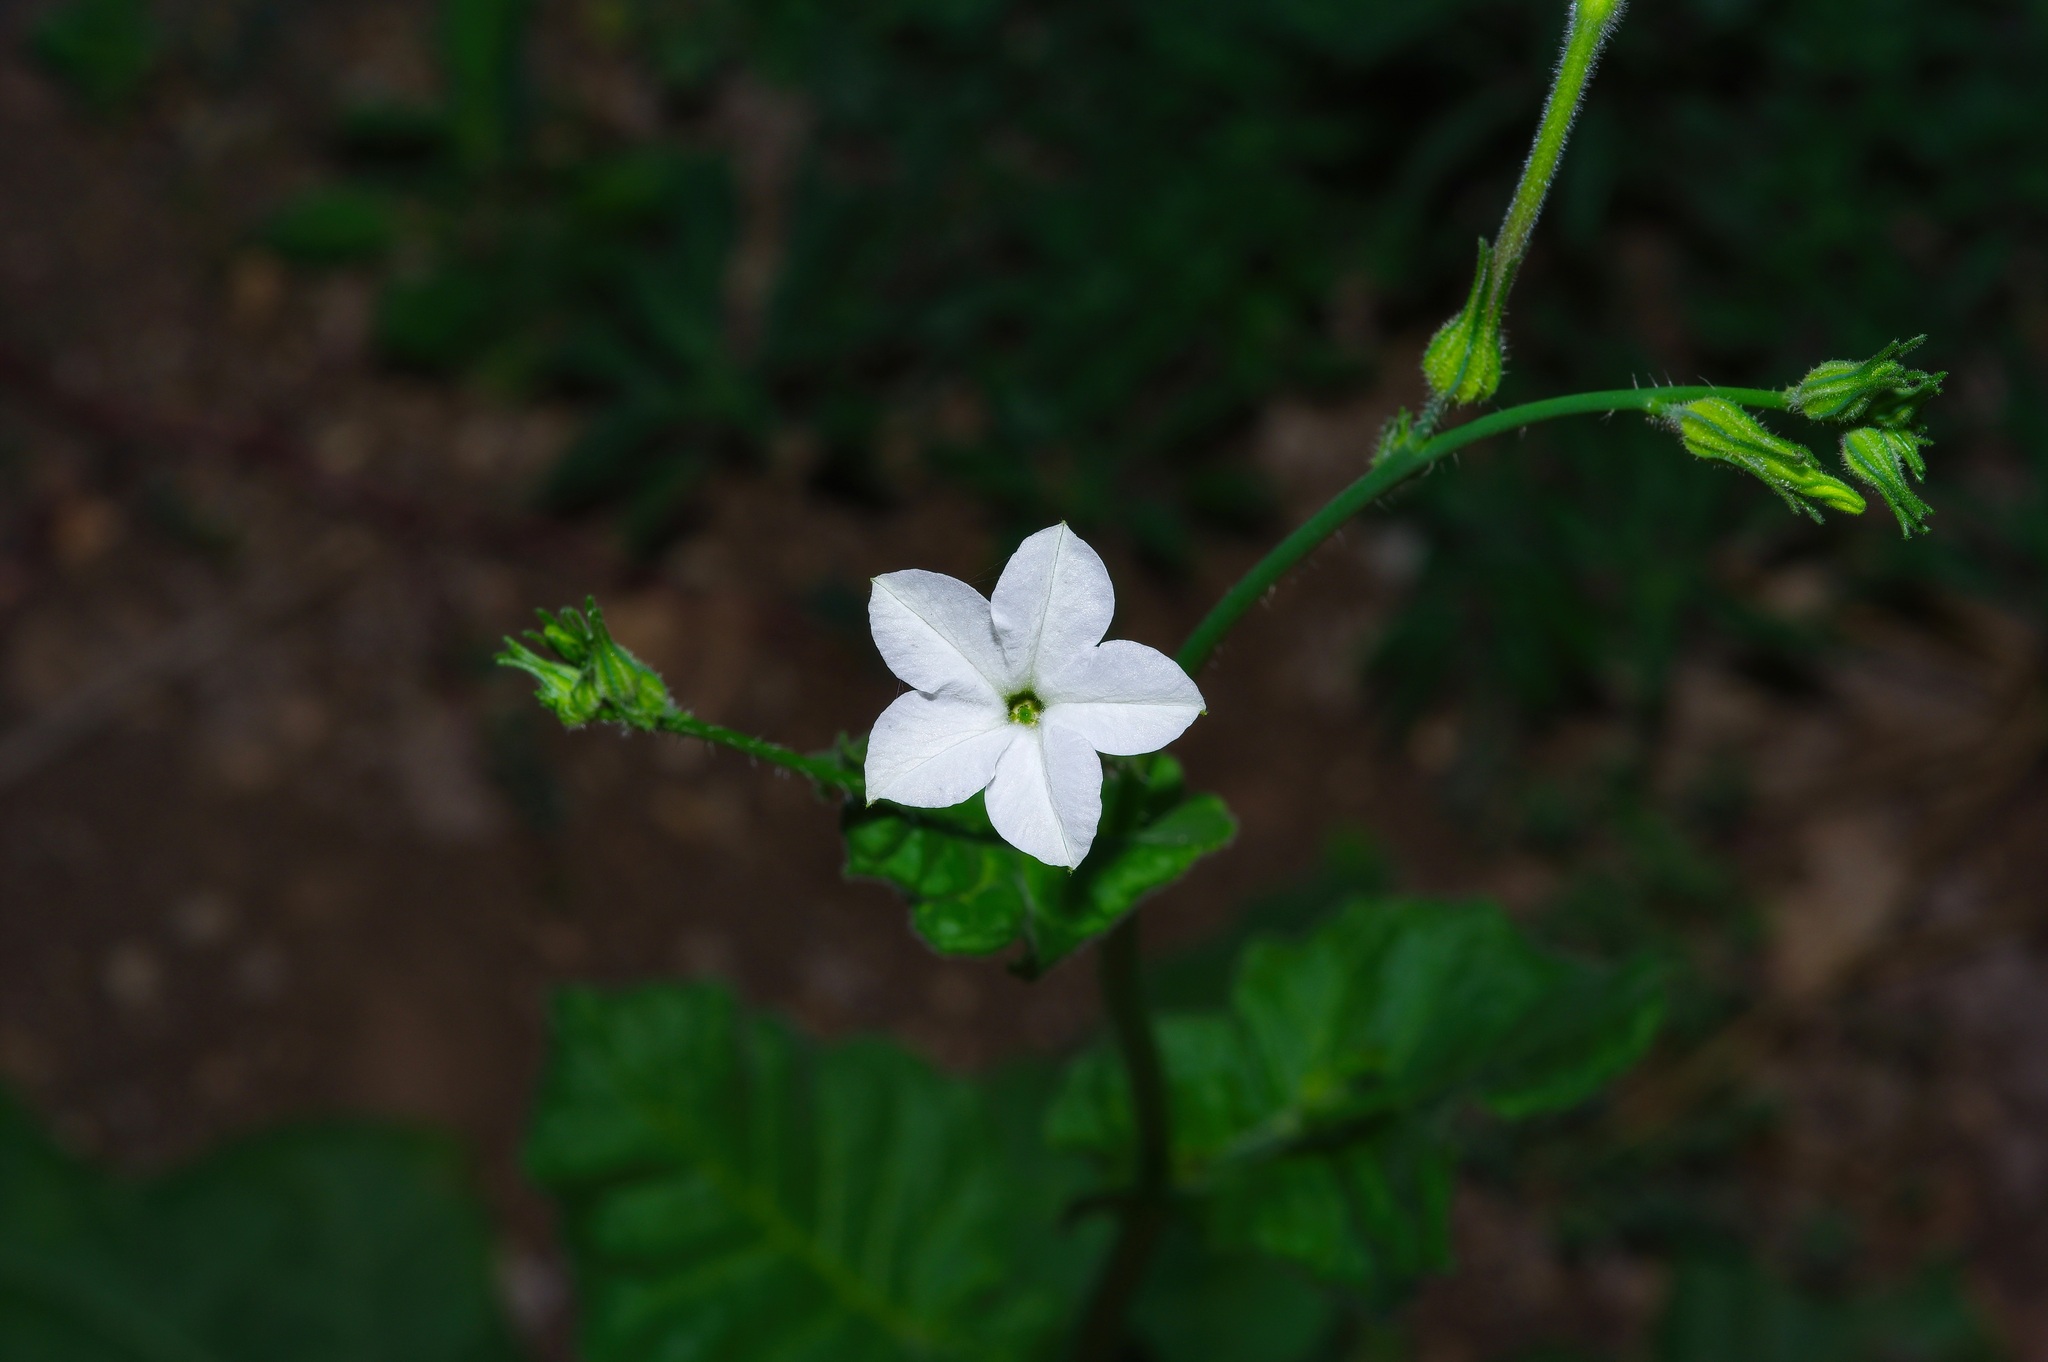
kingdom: Plantae
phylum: Tracheophyta
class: Magnoliopsida
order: Solanales
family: Solanaceae
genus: Nicotiana
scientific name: Nicotiana repanda
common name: Fiddle-leaf tobacco
